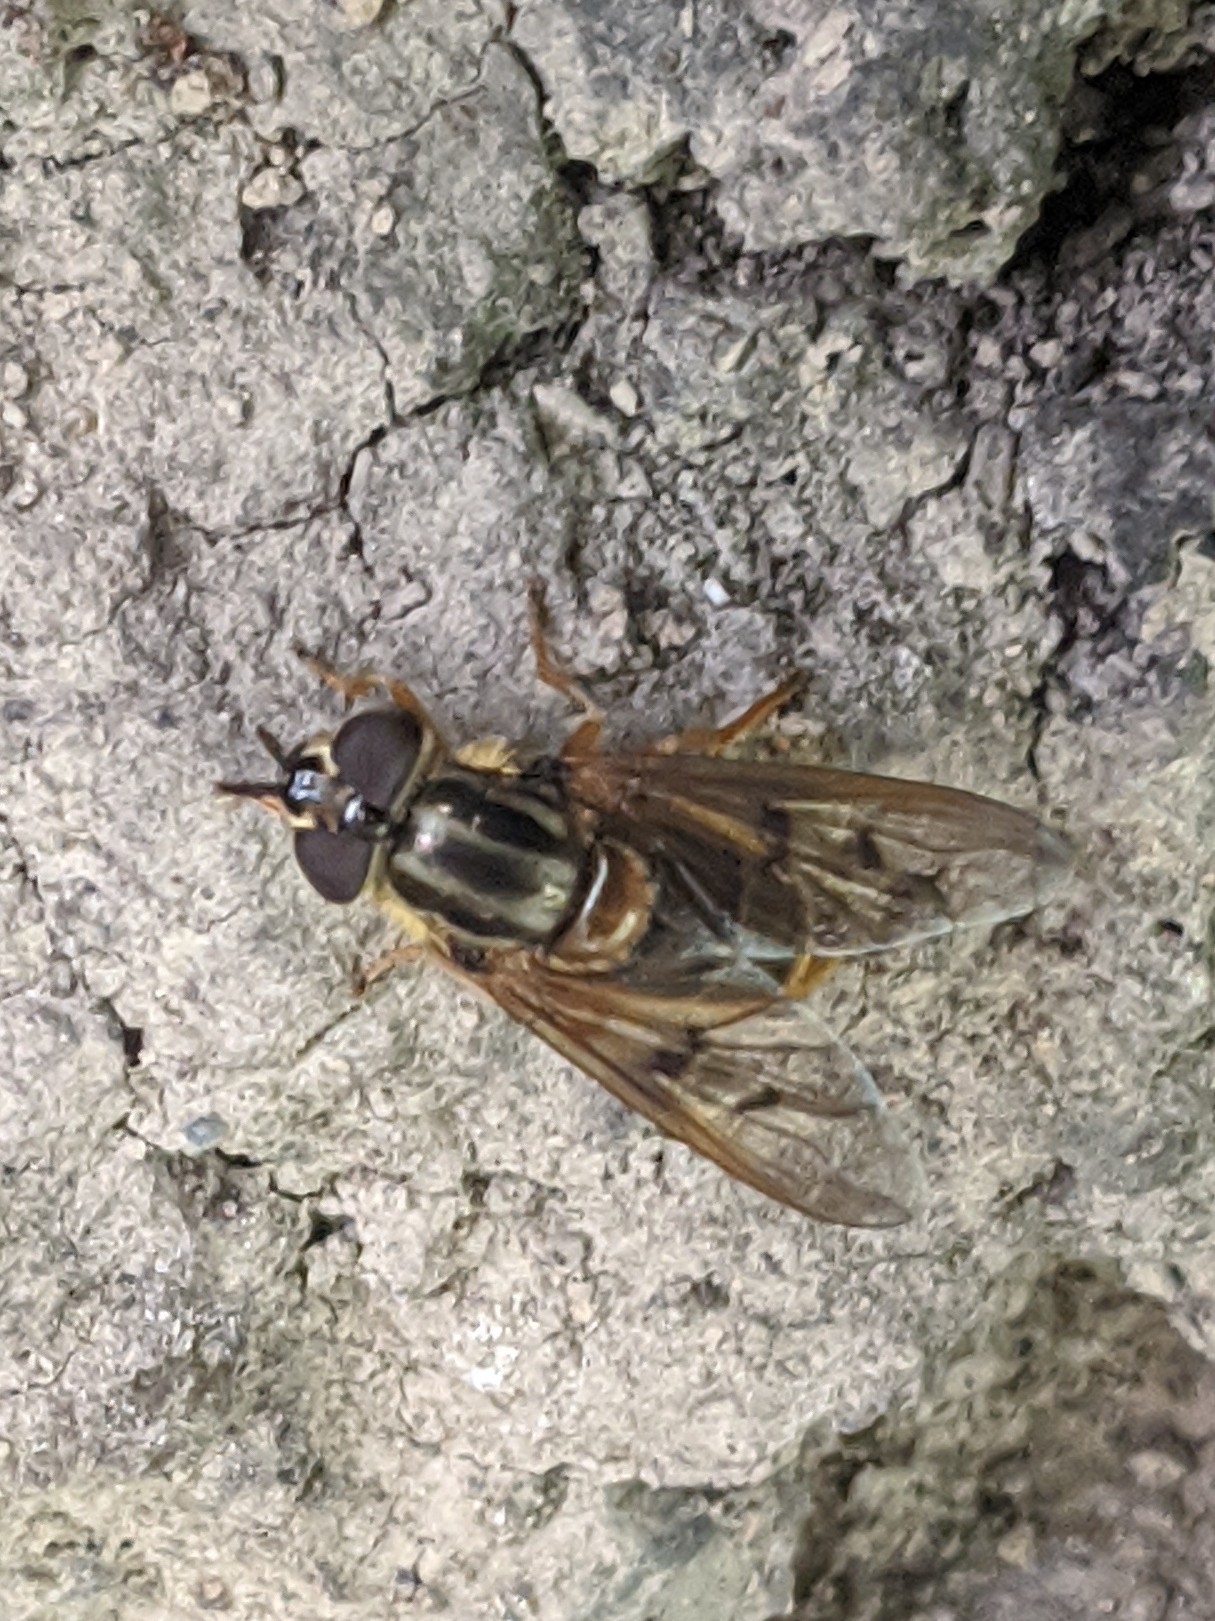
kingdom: Animalia
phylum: Arthropoda
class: Insecta
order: Diptera
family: Syrphidae
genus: Ferdinandea
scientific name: Ferdinandea buccata
